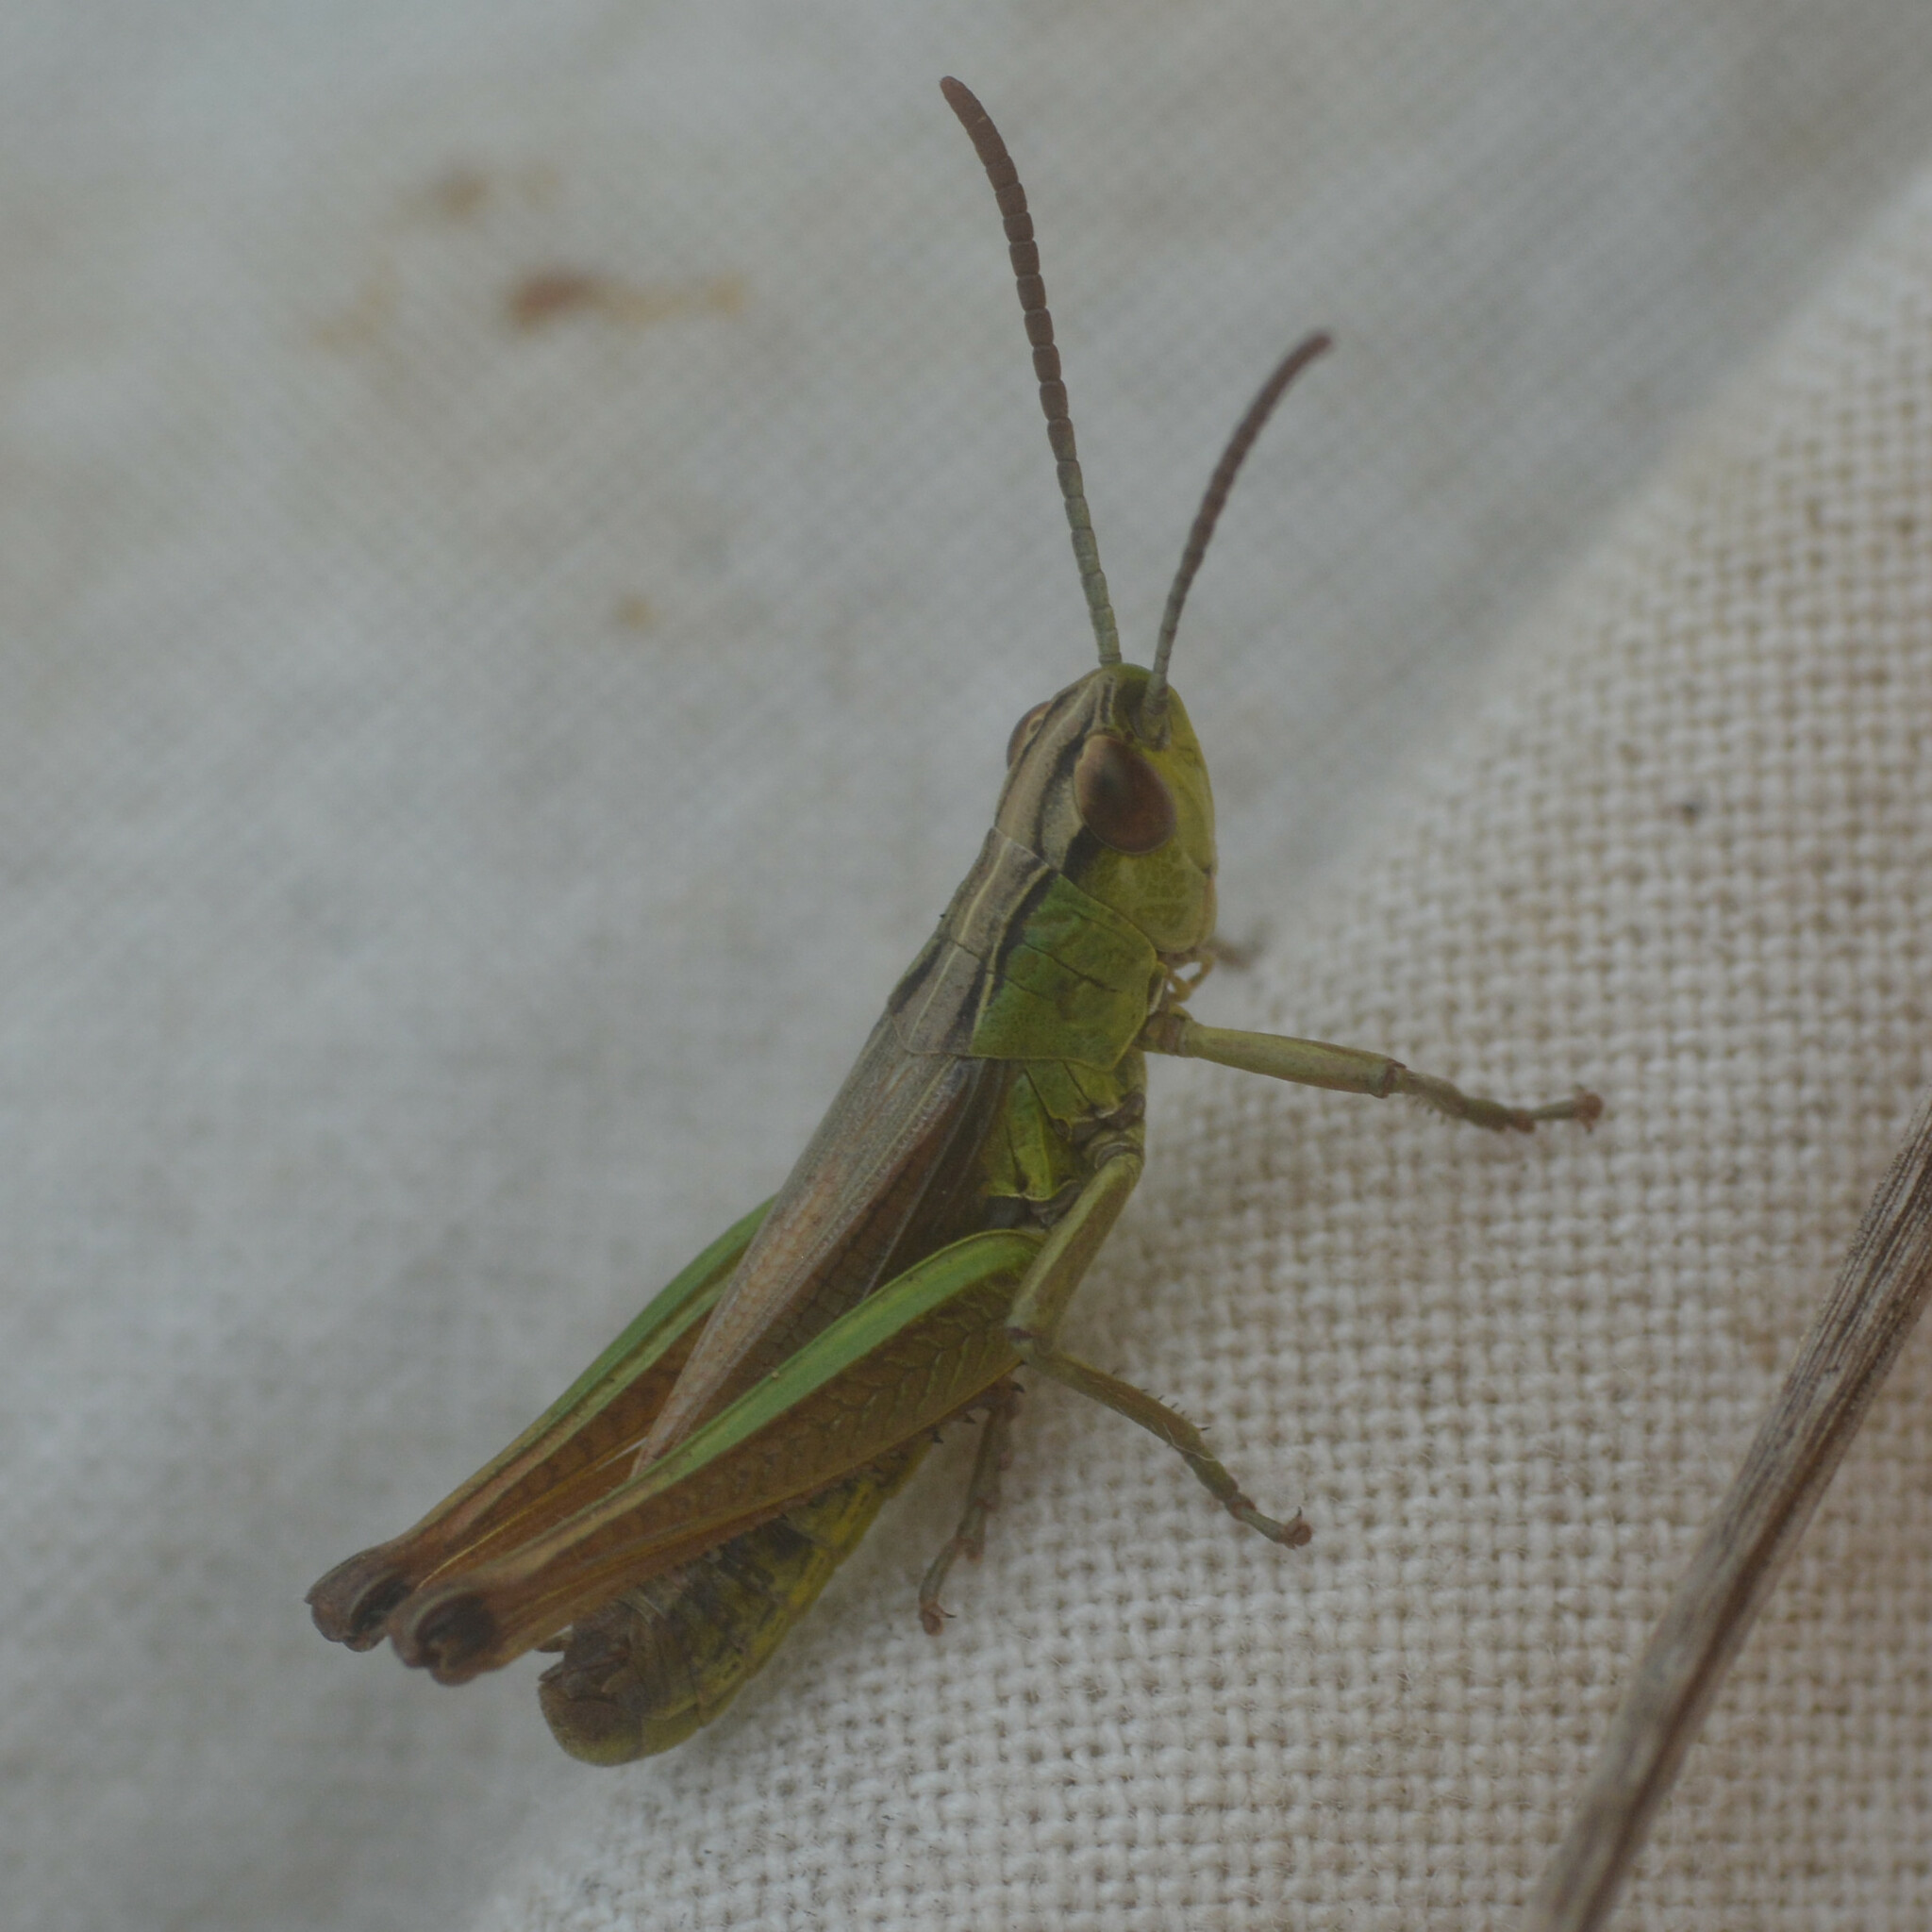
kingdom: Animalia
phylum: Arthropoda
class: Insecta
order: Orthoptera
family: Acrididae
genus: Pseudochorthippus
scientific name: Pseudochorthippus parallelus
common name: Meadow grasshopper
